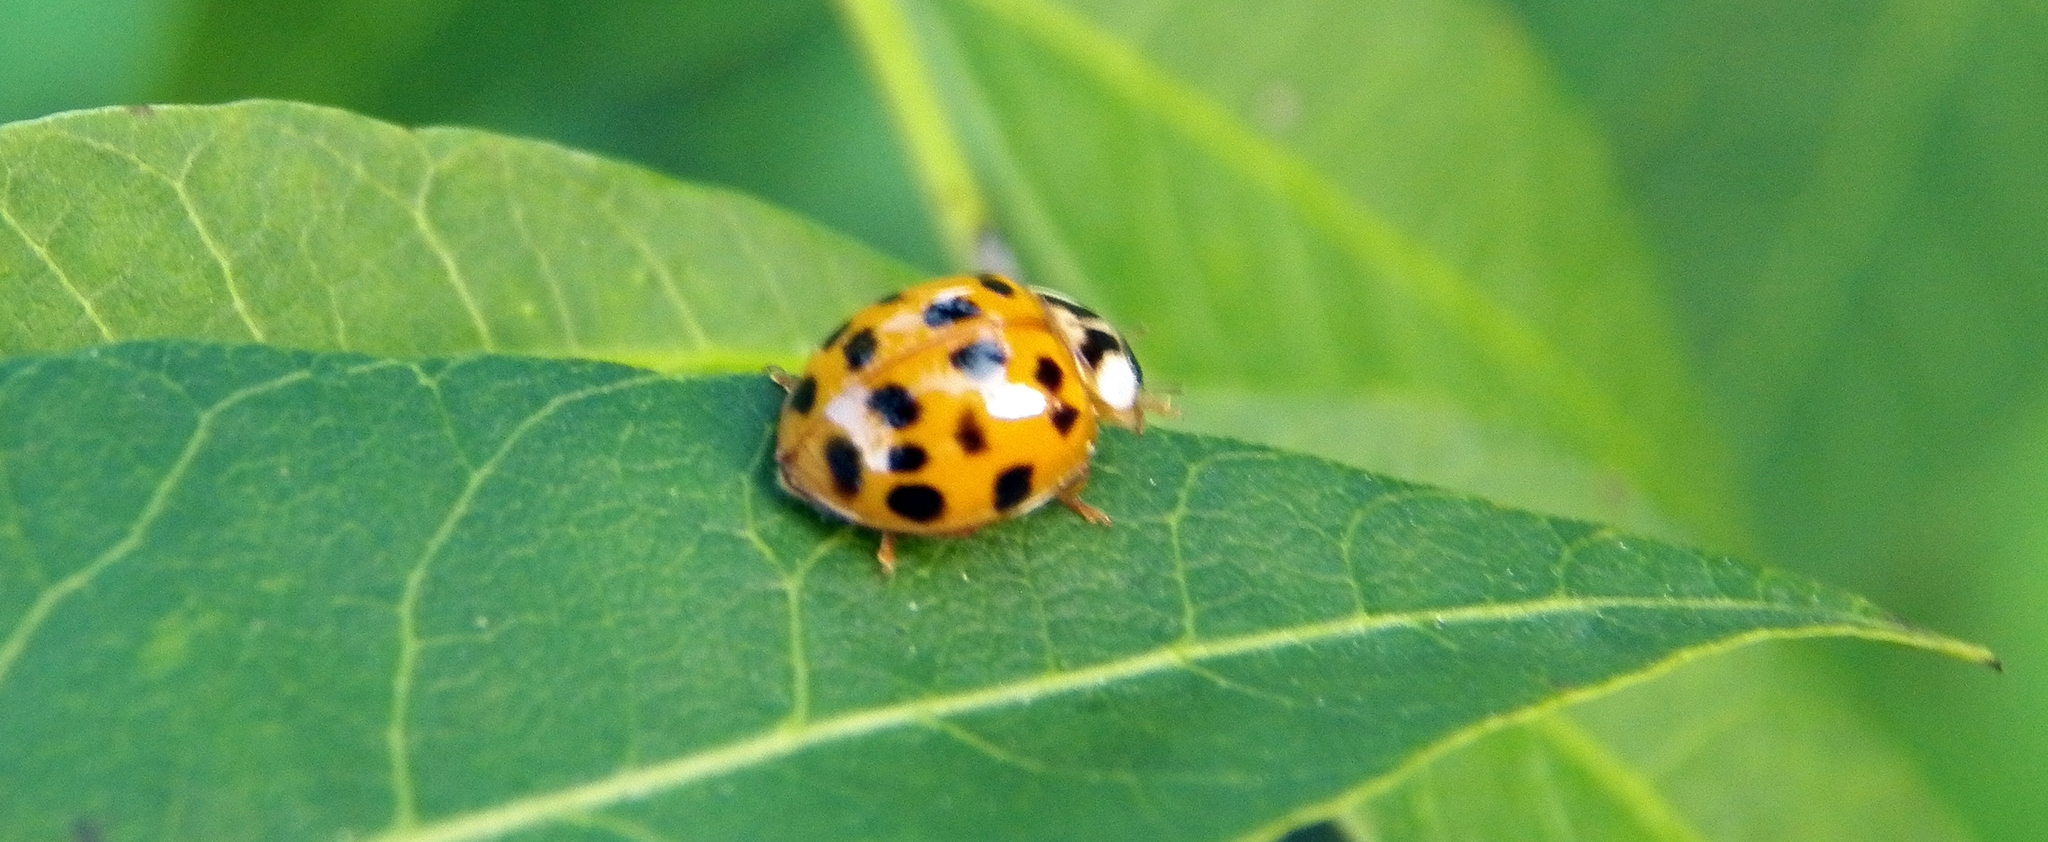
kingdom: Animalia
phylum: Arthropoda
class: Insecta
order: Coleoptera
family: Coccinellidae
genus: Harmonia
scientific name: Harmonia axyridis
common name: Harlequin ladybird
